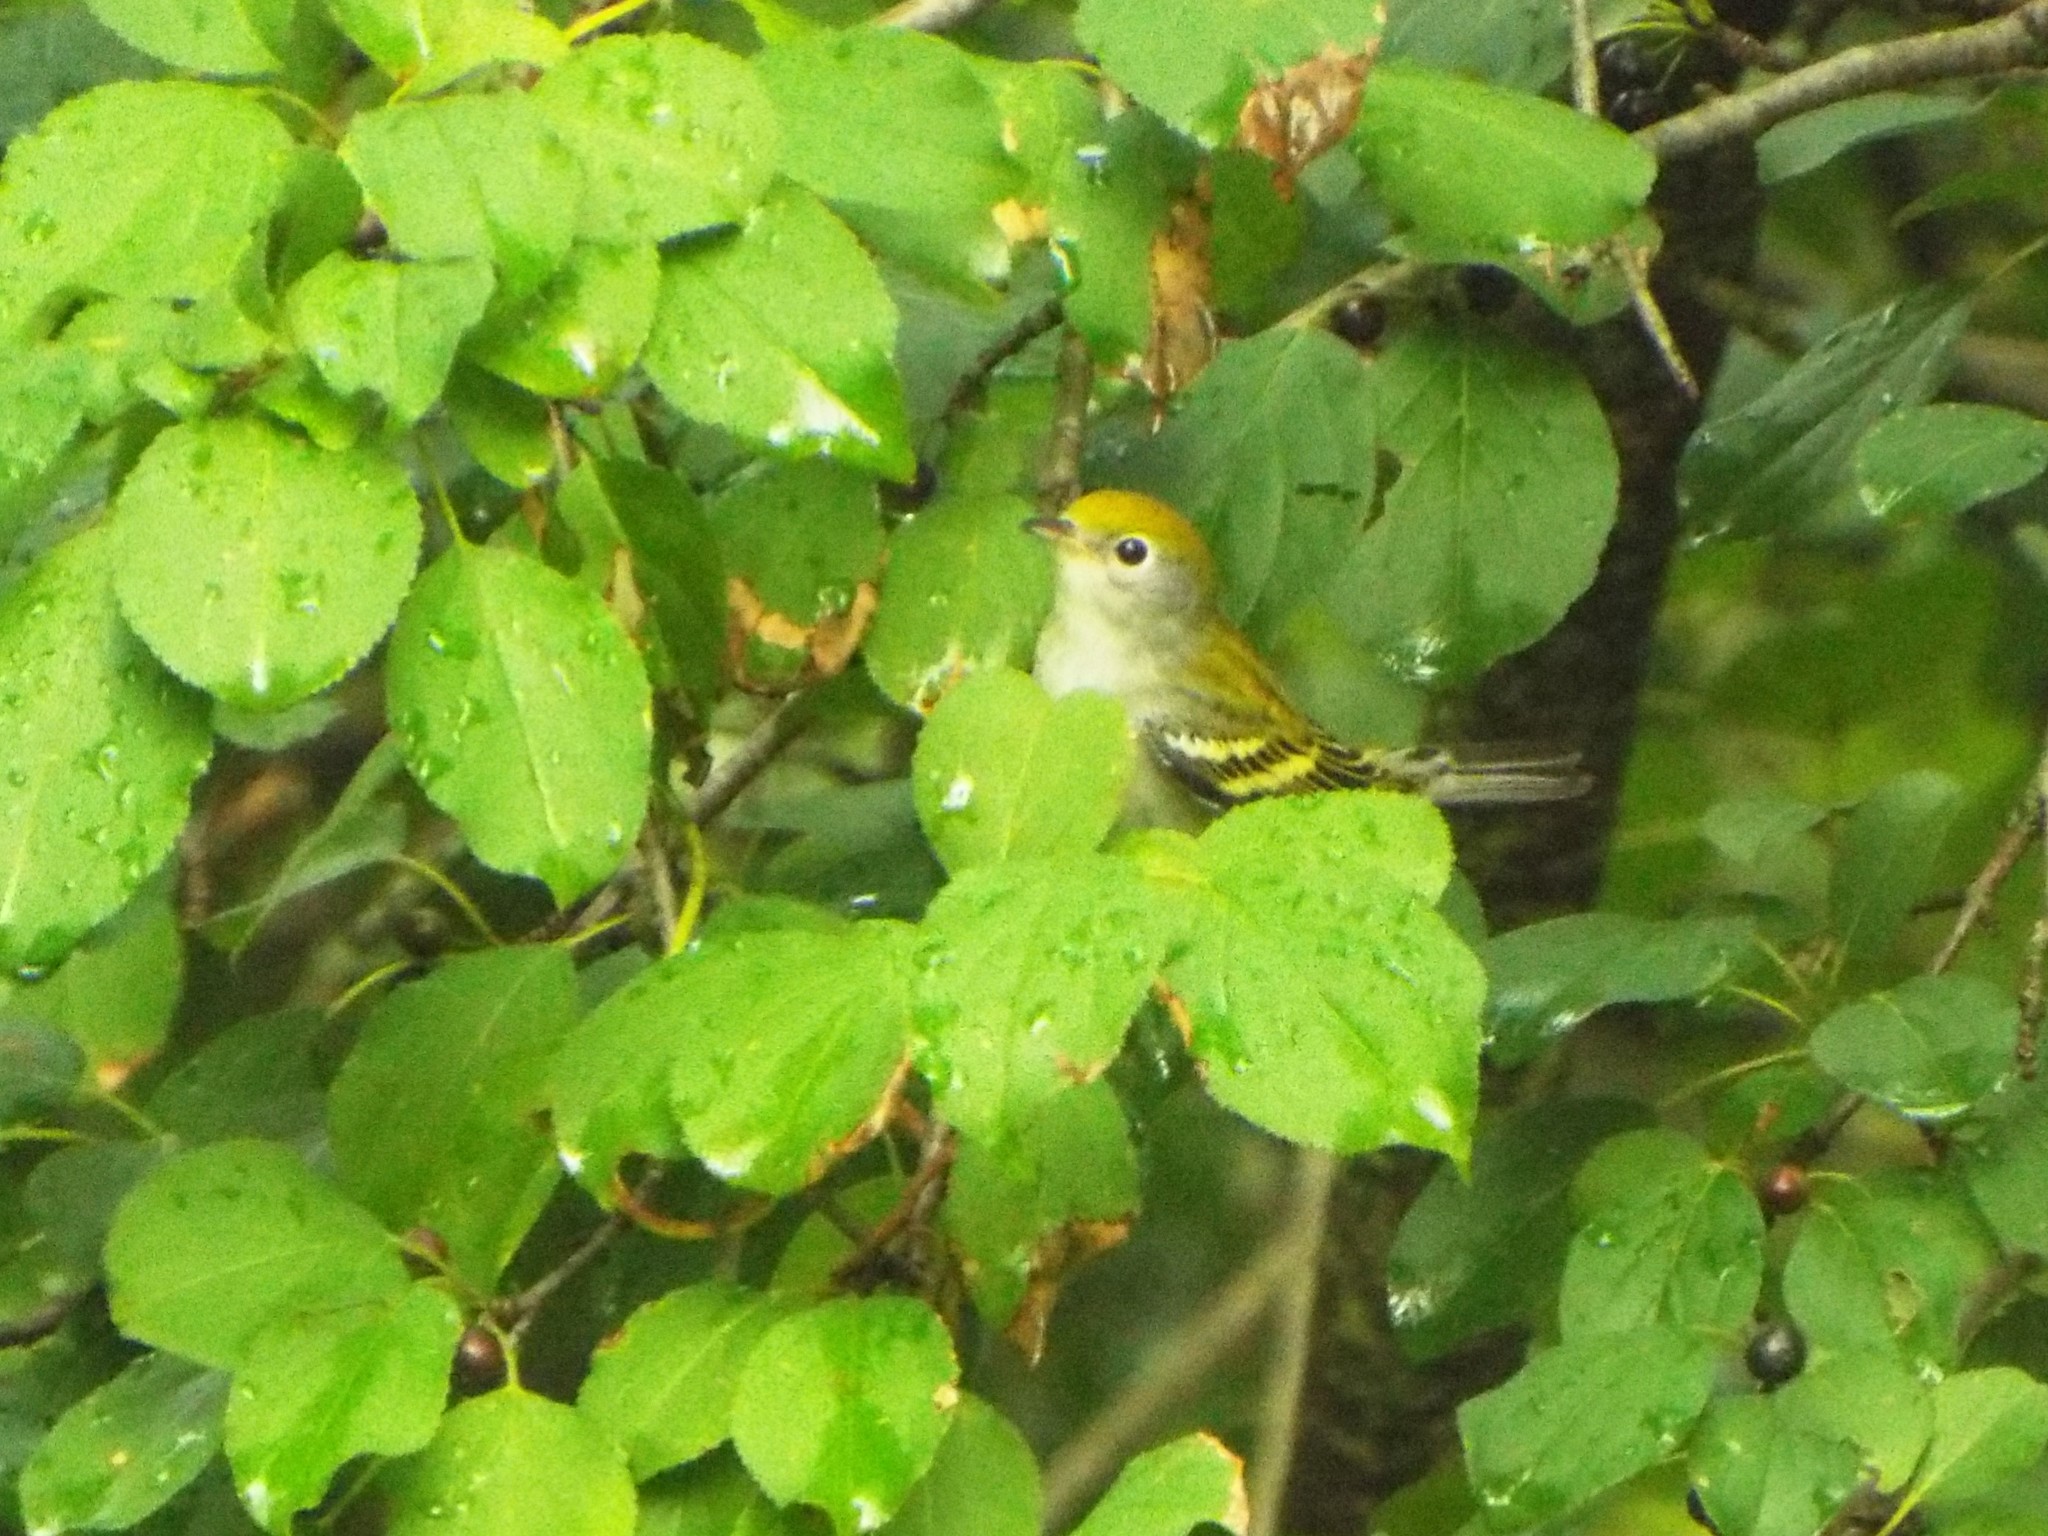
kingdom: Animalia
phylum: Chordata
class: Aves
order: Passeriformes
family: Parulidae
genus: Setophaga
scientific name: Setophaga pensylvanica
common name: Chestnut-sided warbler
